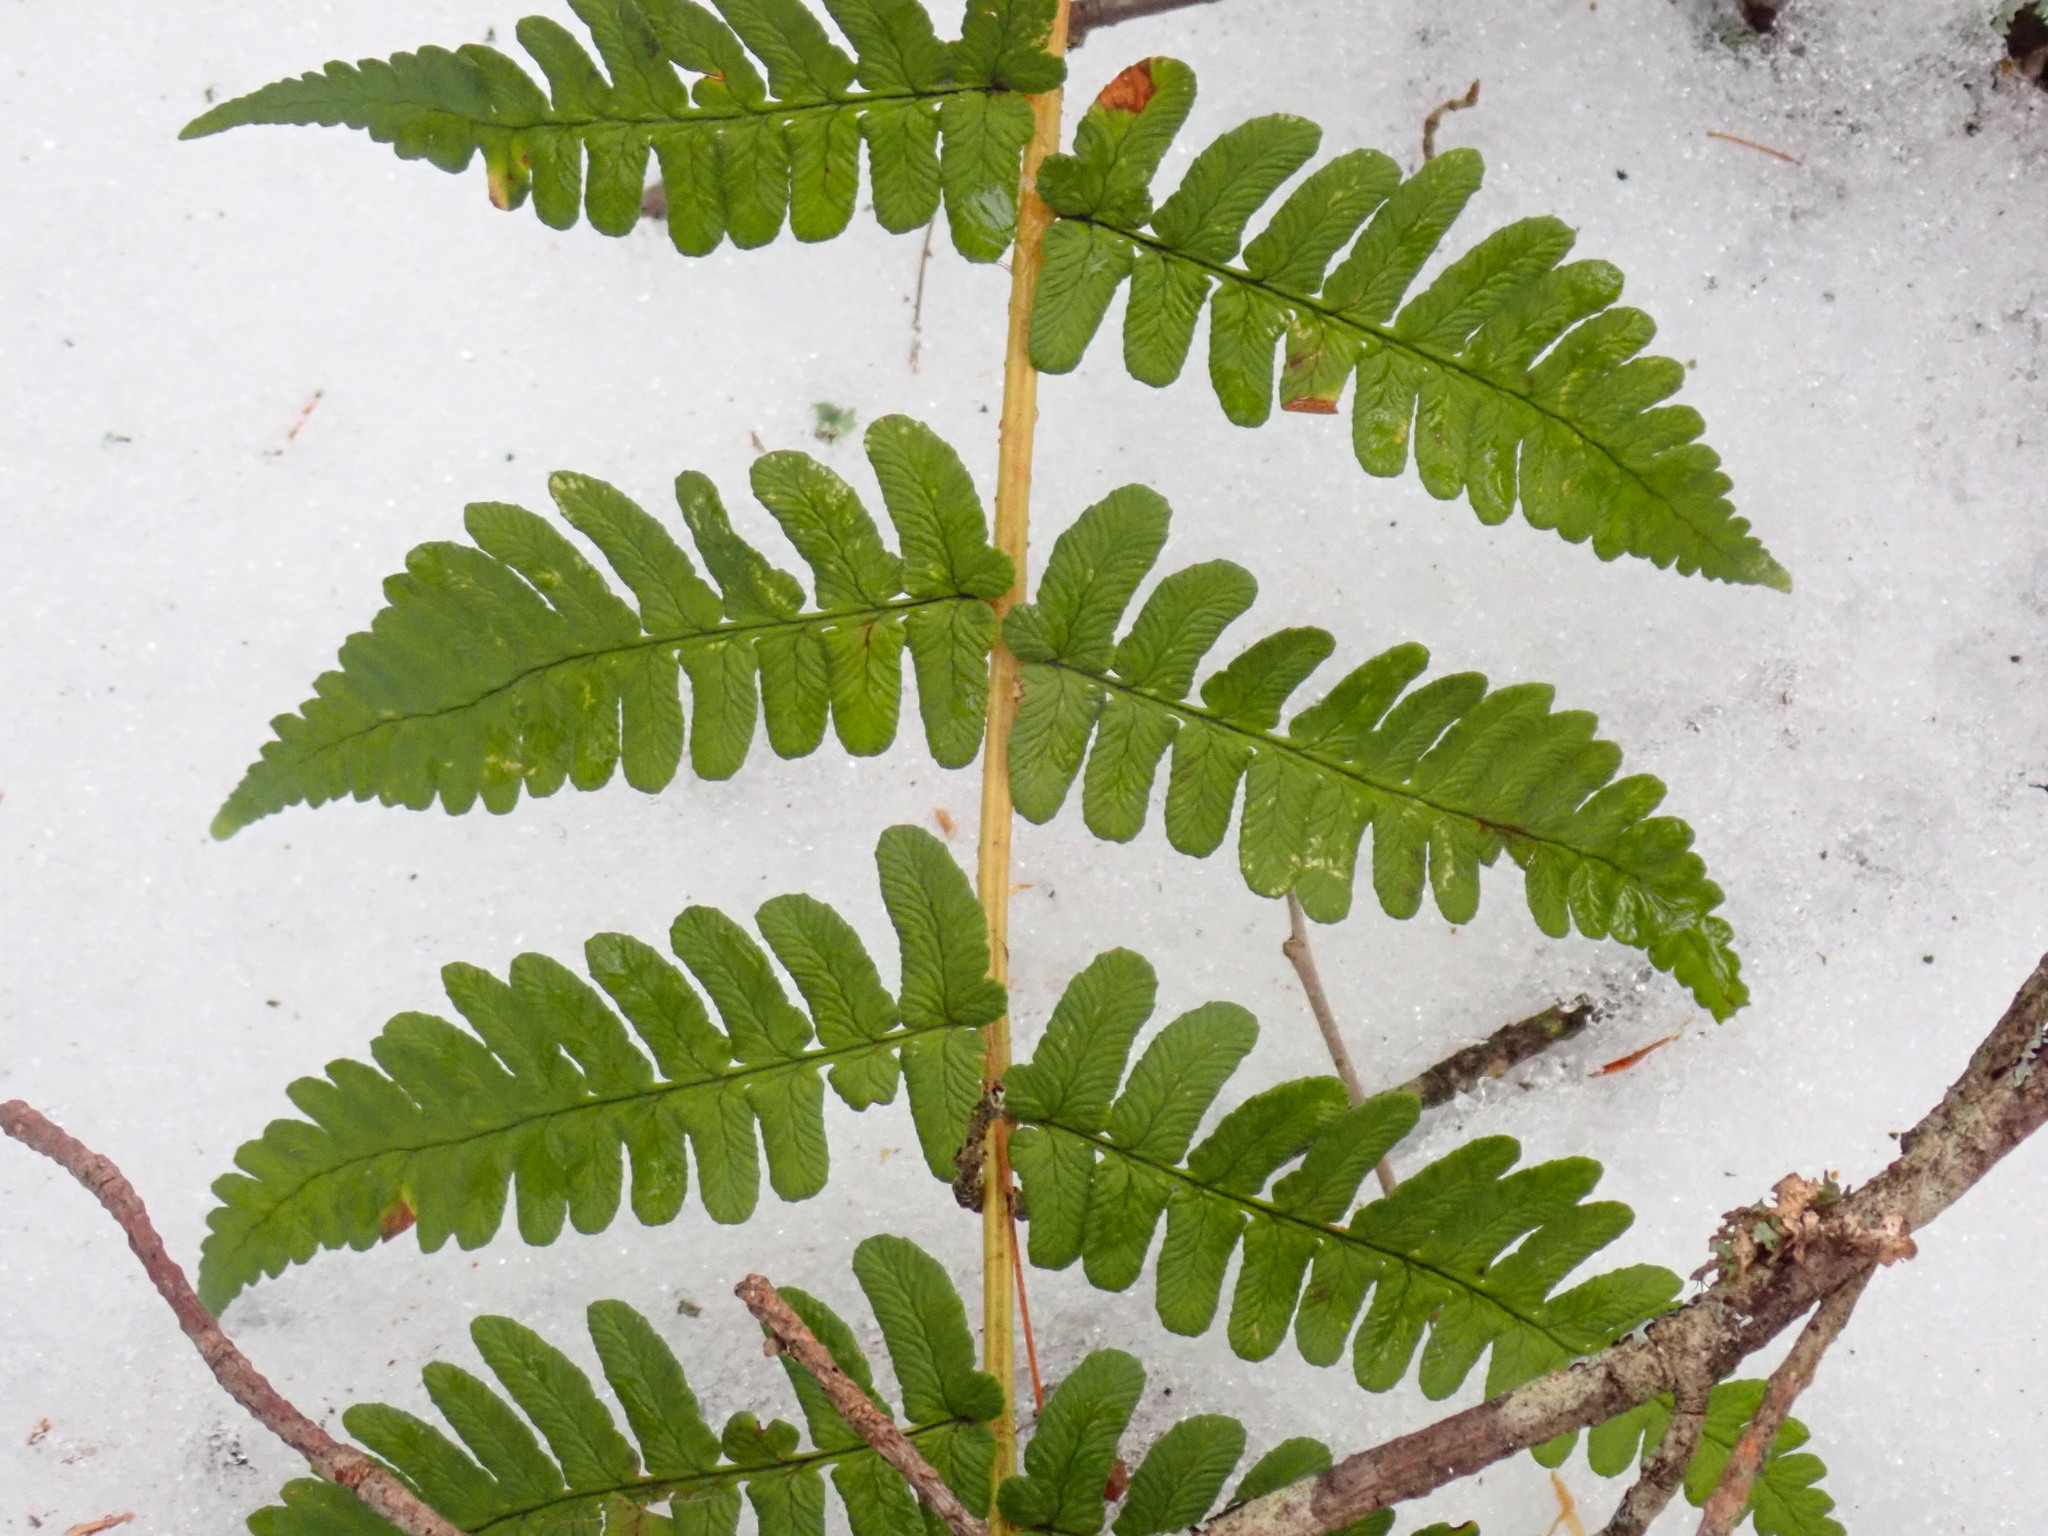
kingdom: Plantae
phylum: Tracheophyta
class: Polypodiopsida
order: Polypodiales
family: Dryopteridaceae
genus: Dryopteris
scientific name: Dryopteris marginalis
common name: Marginal wood fern
